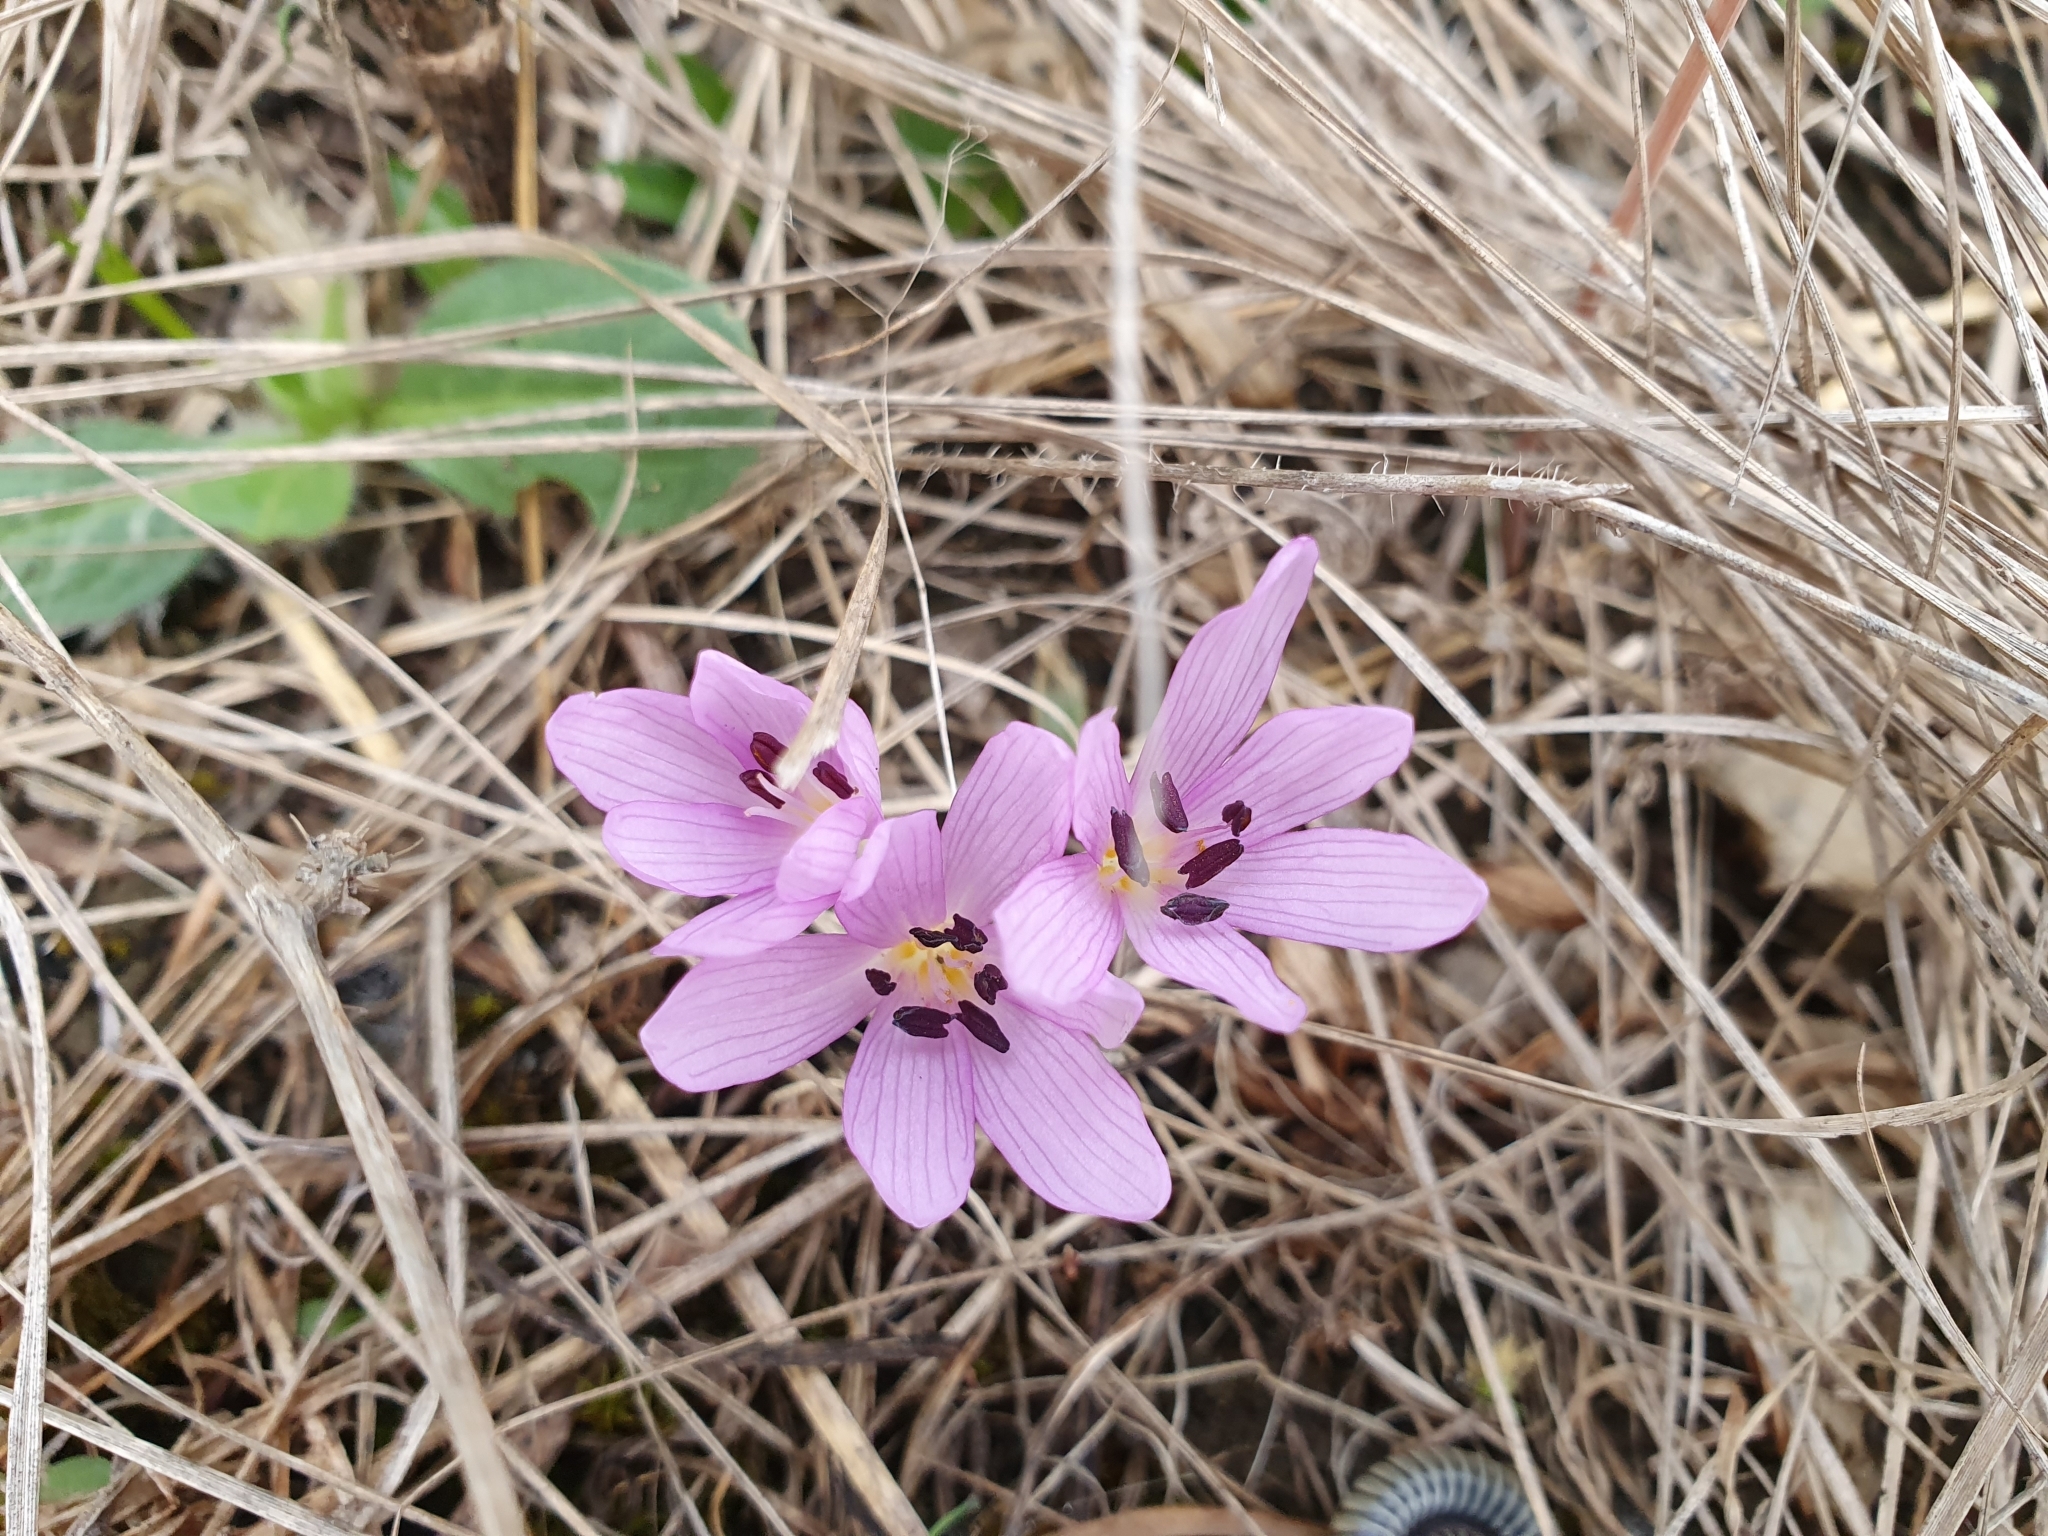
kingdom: Plantae
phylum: Tracheophyta
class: Liliopsida
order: Liliales
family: Colchicaceae
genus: Colchicum
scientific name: Colchicum cupanii
